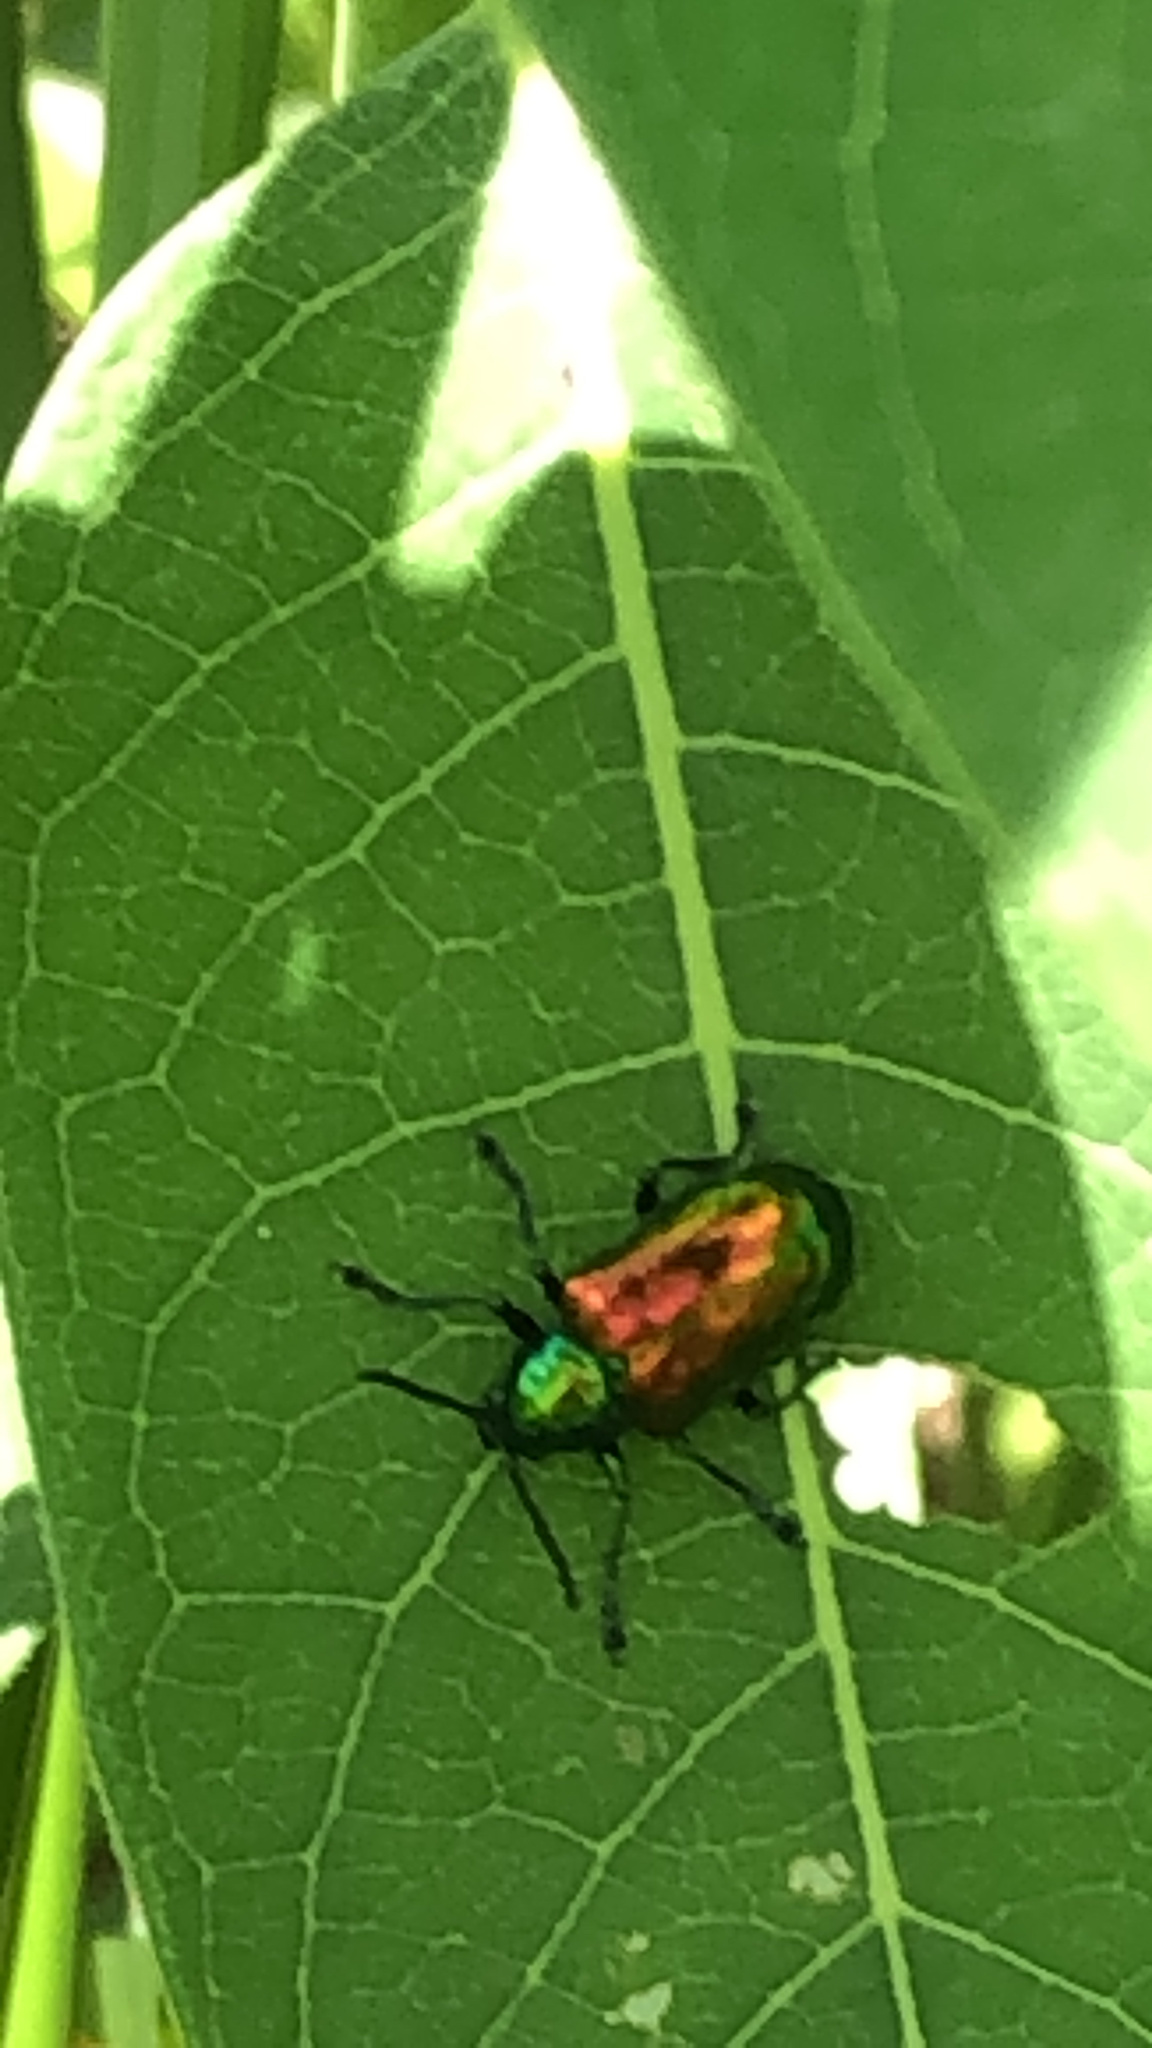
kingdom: Animalia
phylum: Arthropoda
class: Insecta
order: Coleoptera
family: Chrysomelidae
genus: Chrysochus
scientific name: Chrysochus auratus
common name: Dogbane leaf beetle
